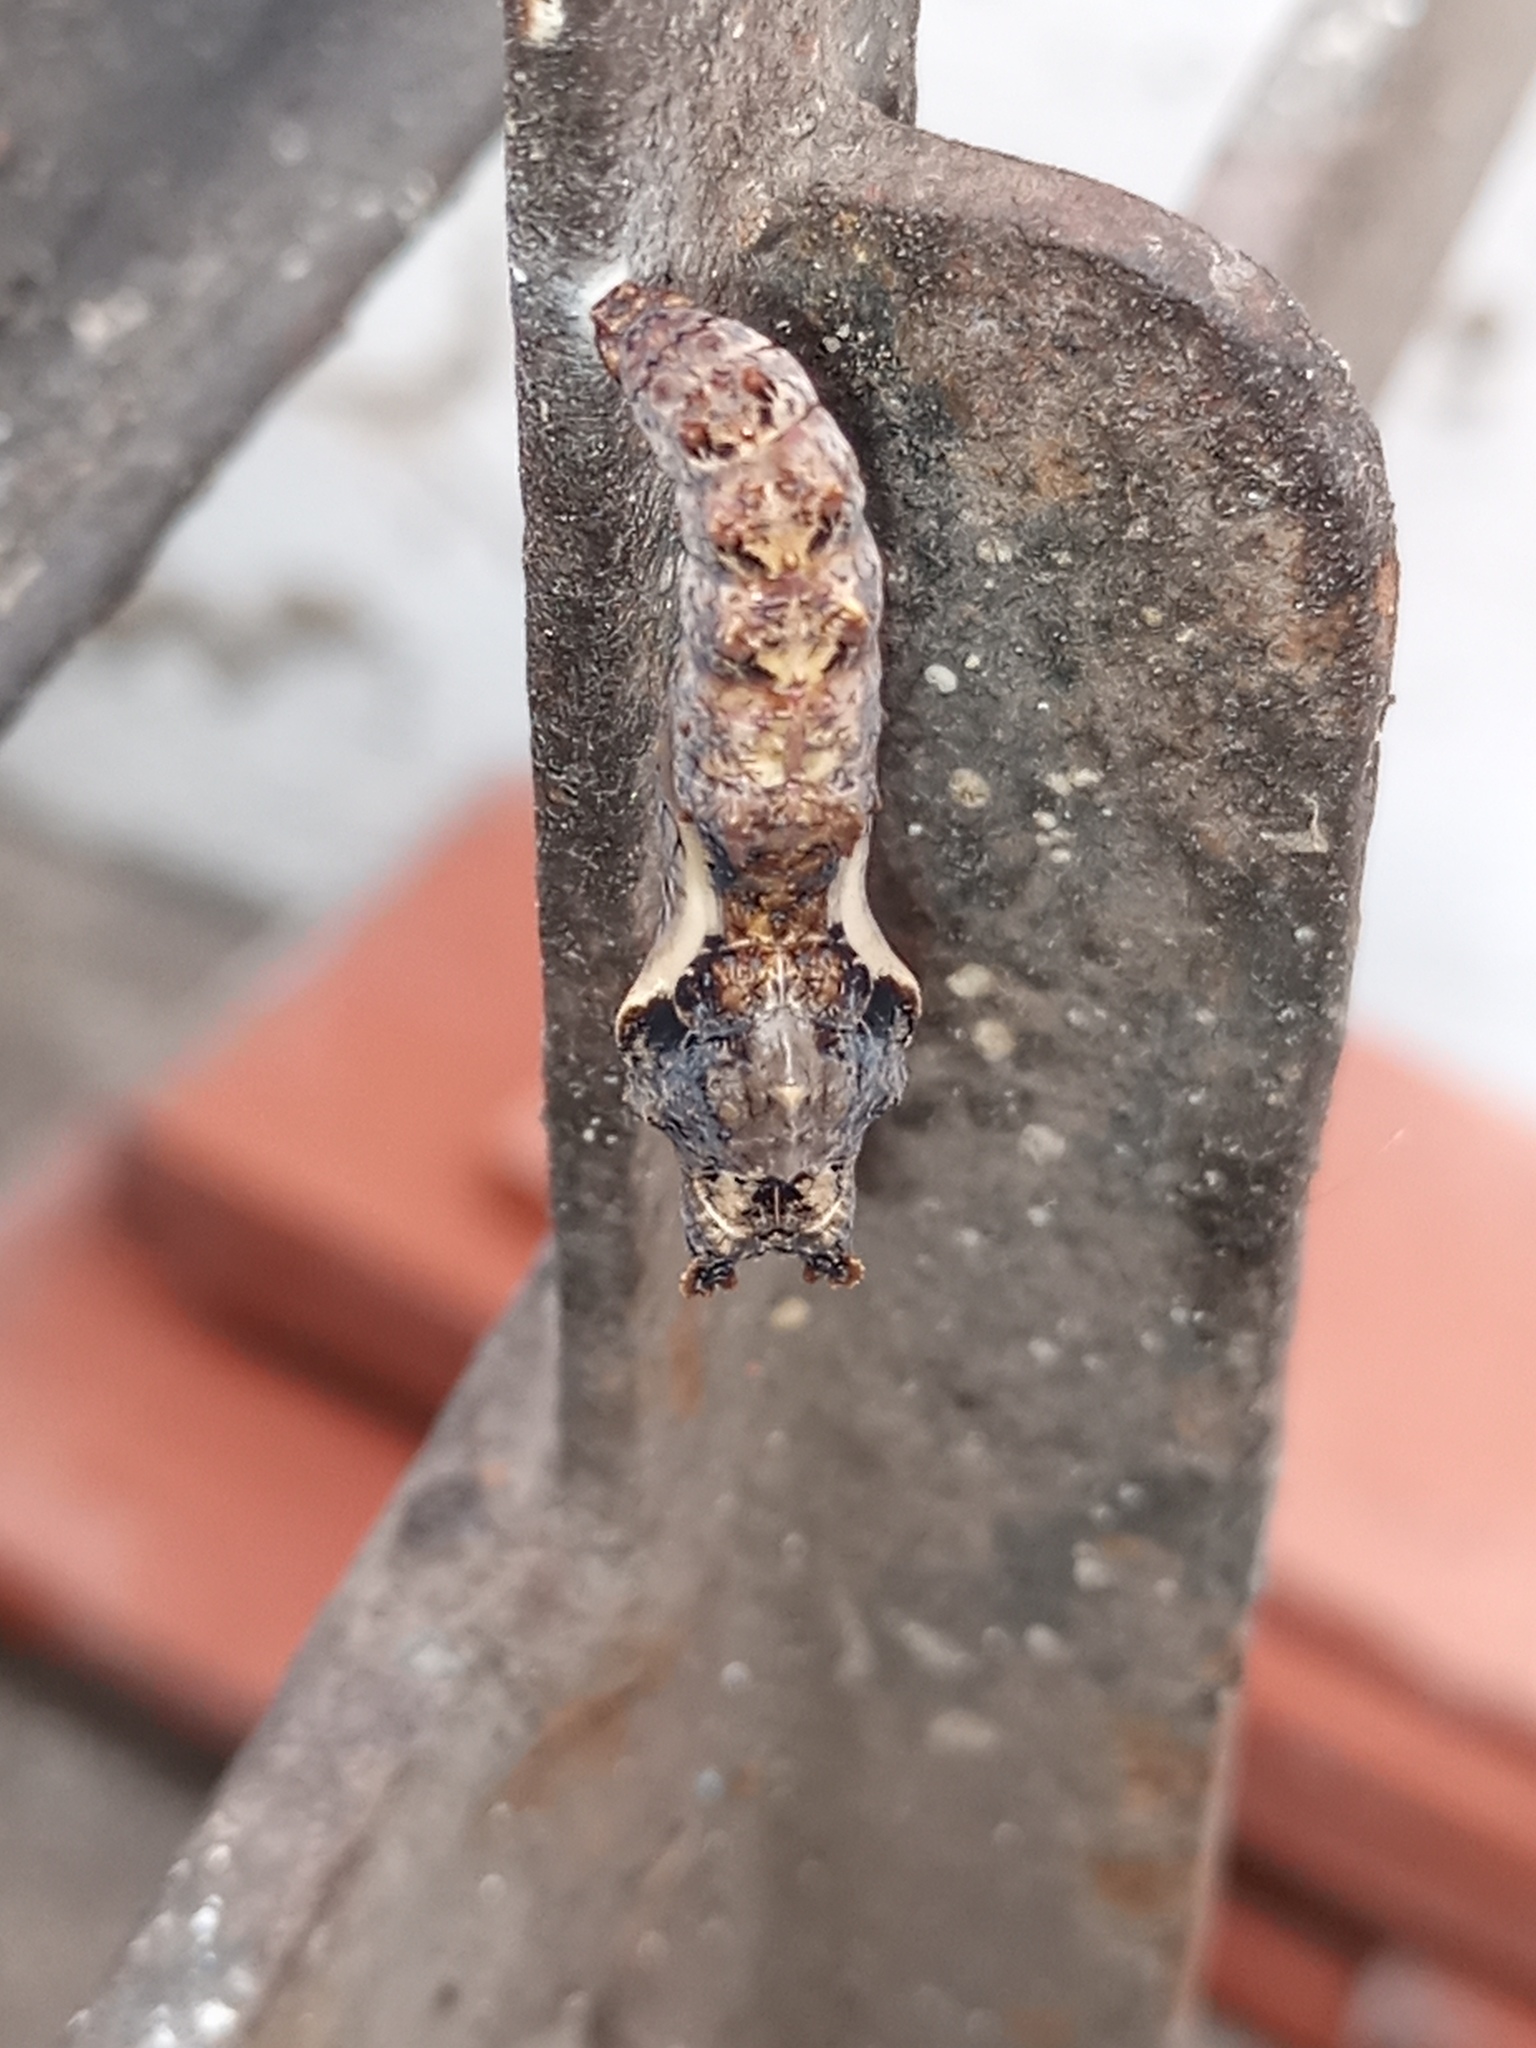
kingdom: Animalia
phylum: Arthropoda
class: Insecta
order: Lepidoptera
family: Nymphalidae
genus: Dione
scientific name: Dione vanillae
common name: Gulf fritillary
